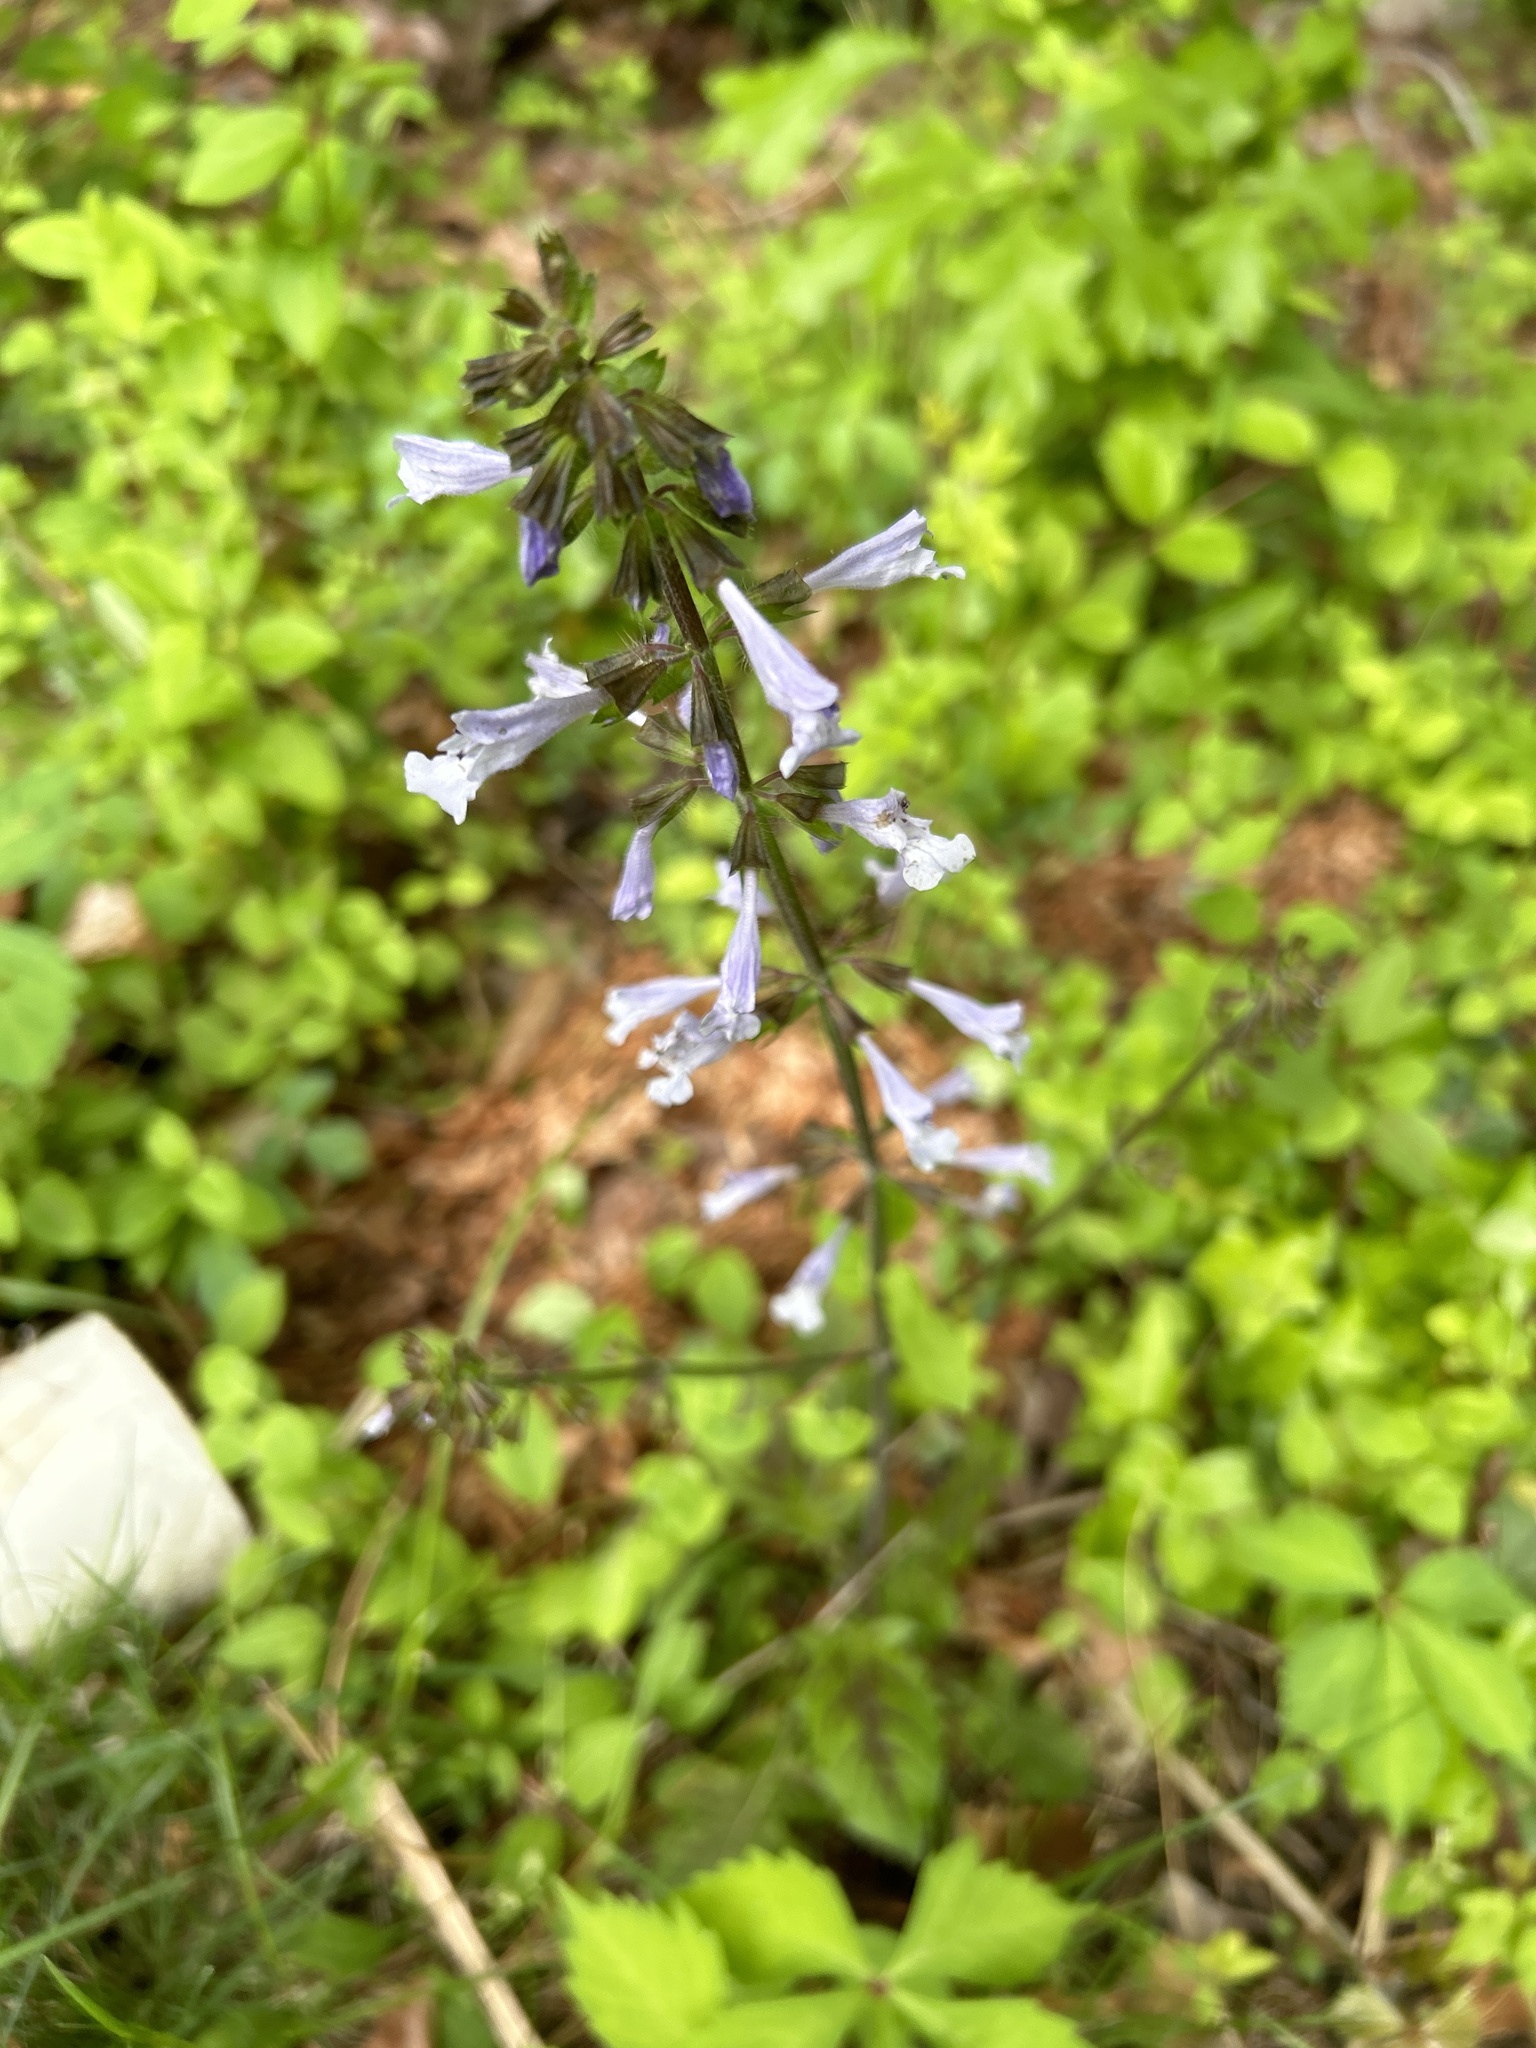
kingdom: Plantae
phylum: Tracheophyta
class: Magnoliopsida
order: Lamiales
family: Lamiaceae
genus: Salvia
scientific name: Salvia lyrata
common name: Cancerweed
